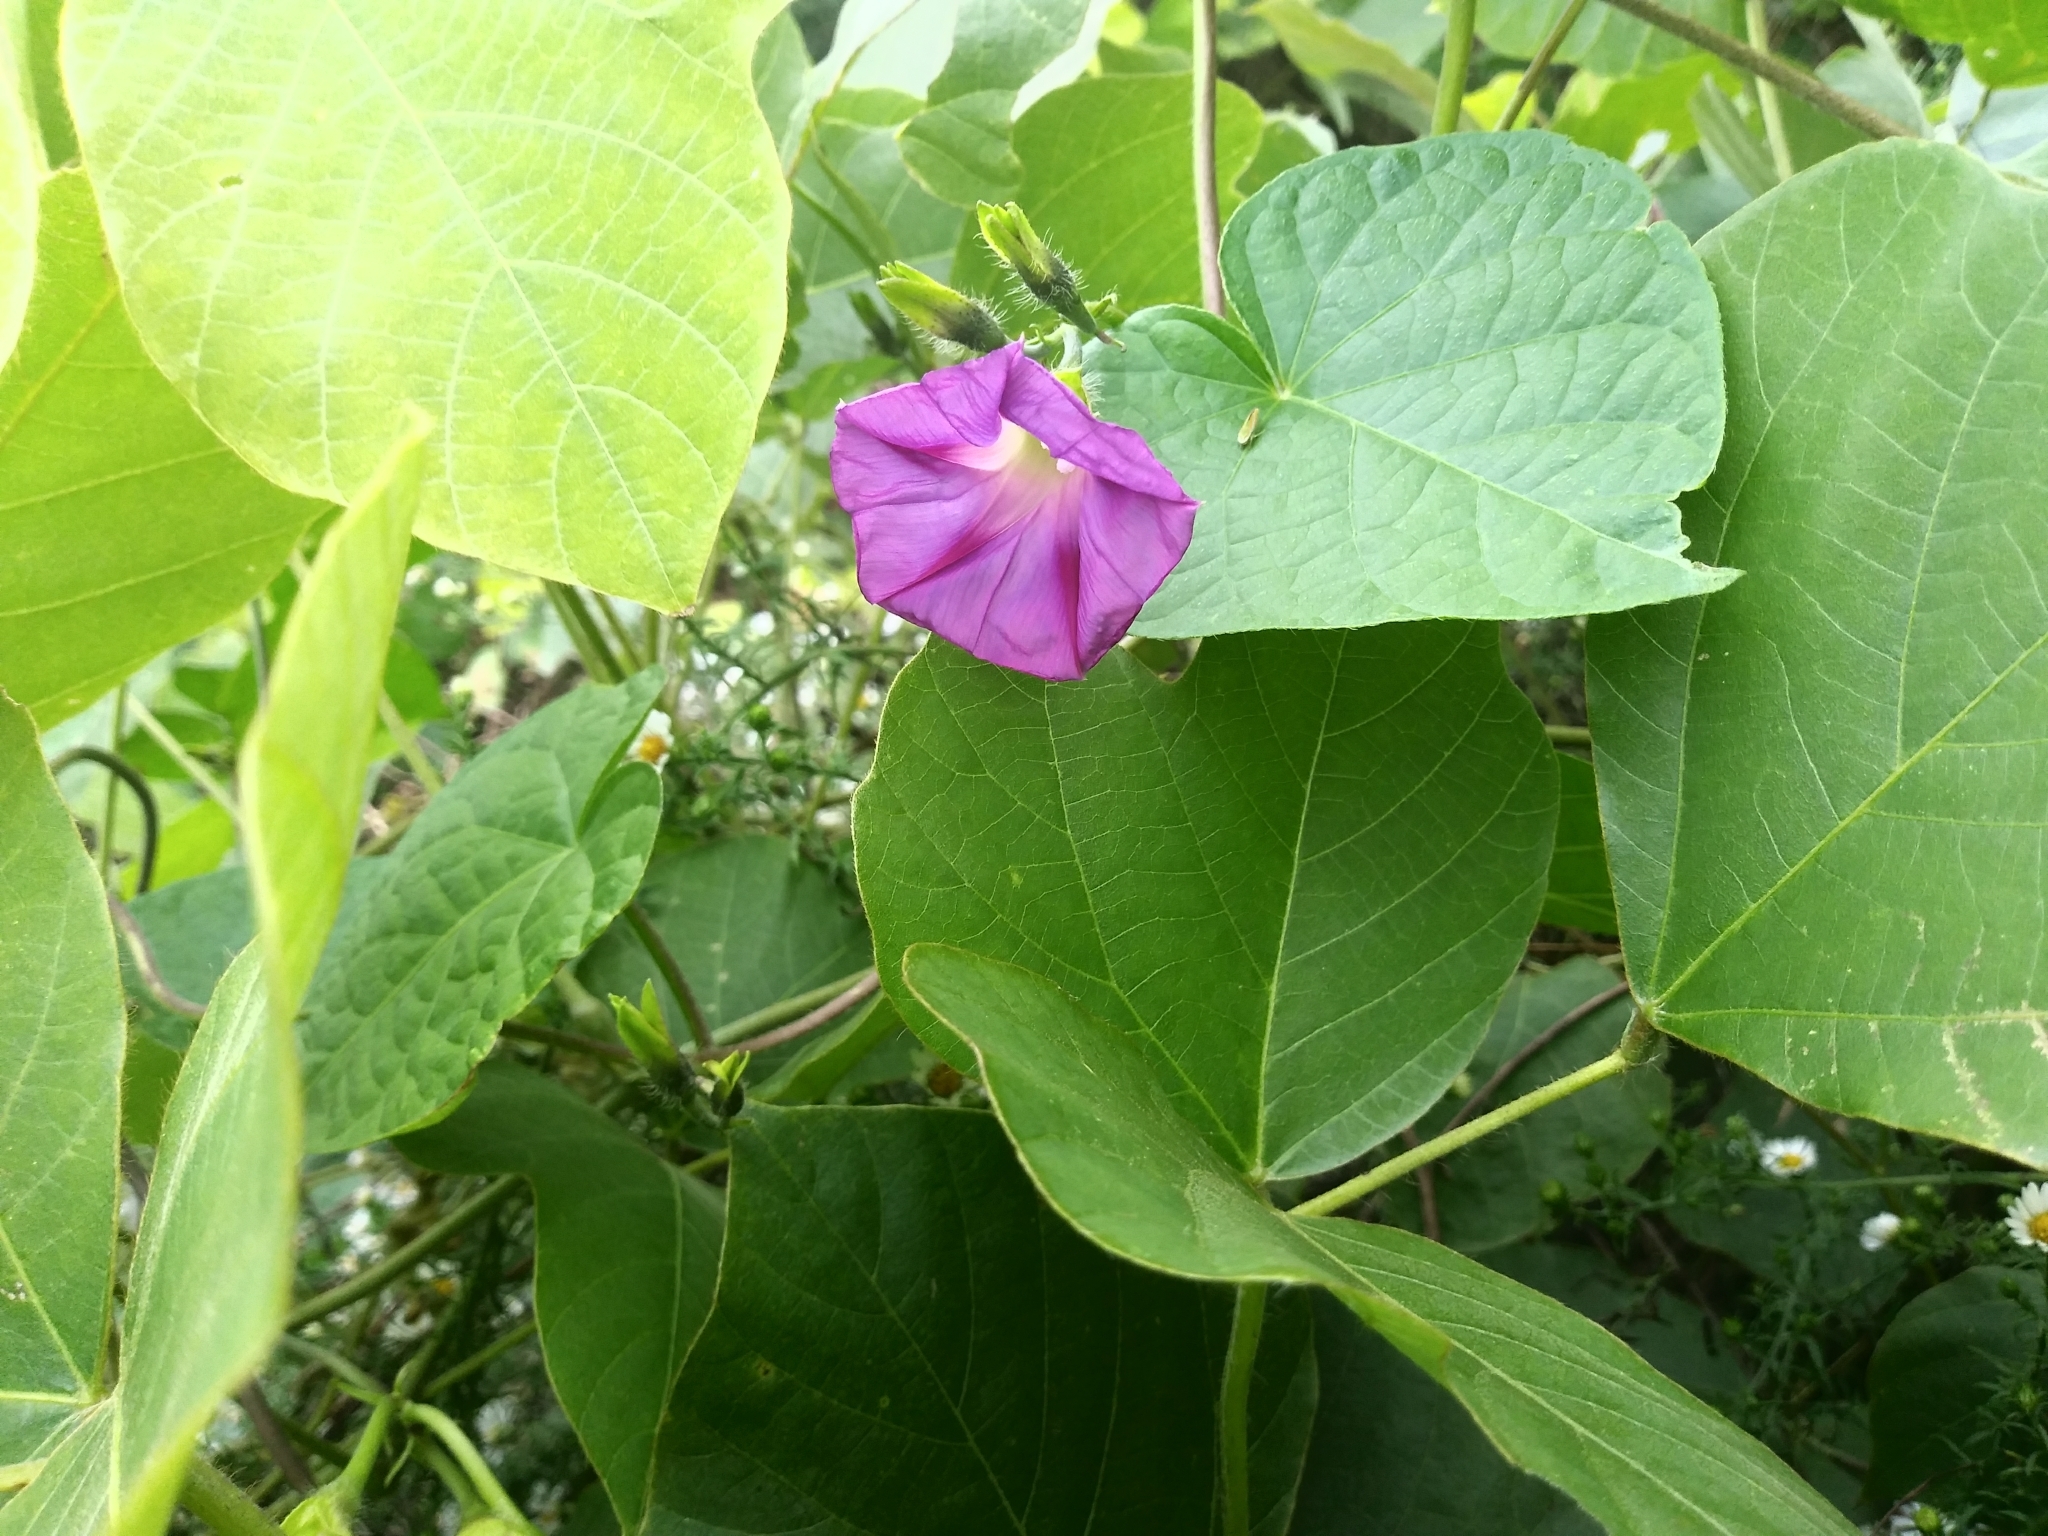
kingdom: Plantae
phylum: Tracheophyta
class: Magnoliopsida
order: Solanales
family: Convolvulaceae
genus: Ipomoea
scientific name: Ipomoea purpurea
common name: Common morning-glory
